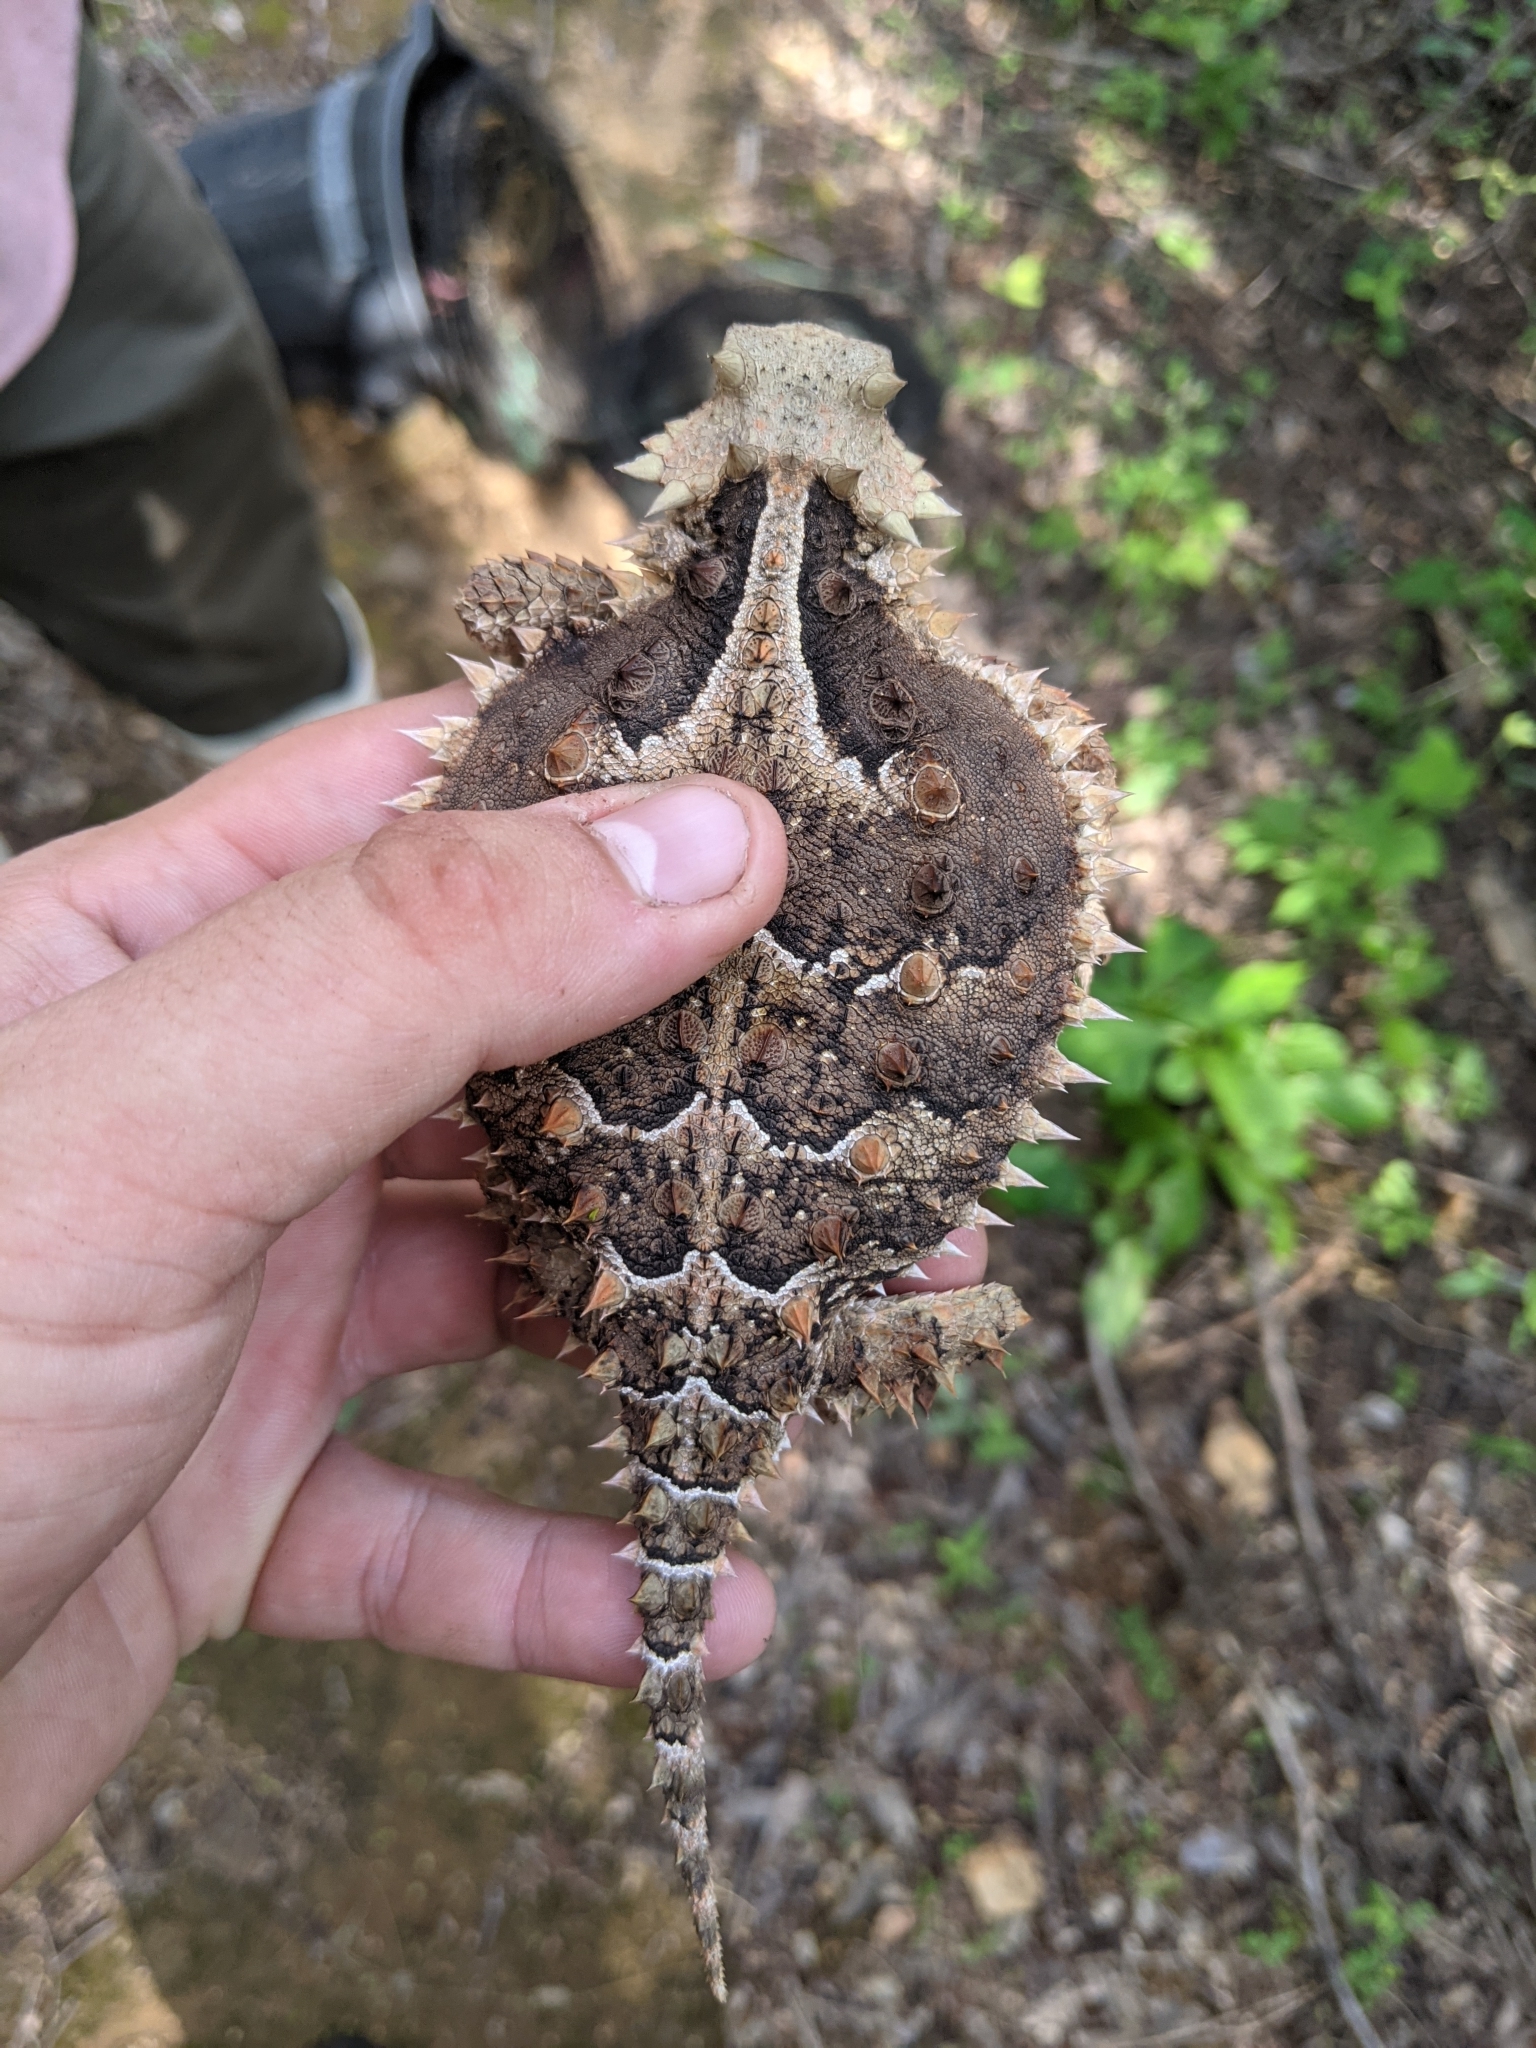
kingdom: Animalia
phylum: Chordata
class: Squamata
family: Phrynosomatidae
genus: Phrynosoma
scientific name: Phrynosoma asio
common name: Giant horned lizard
